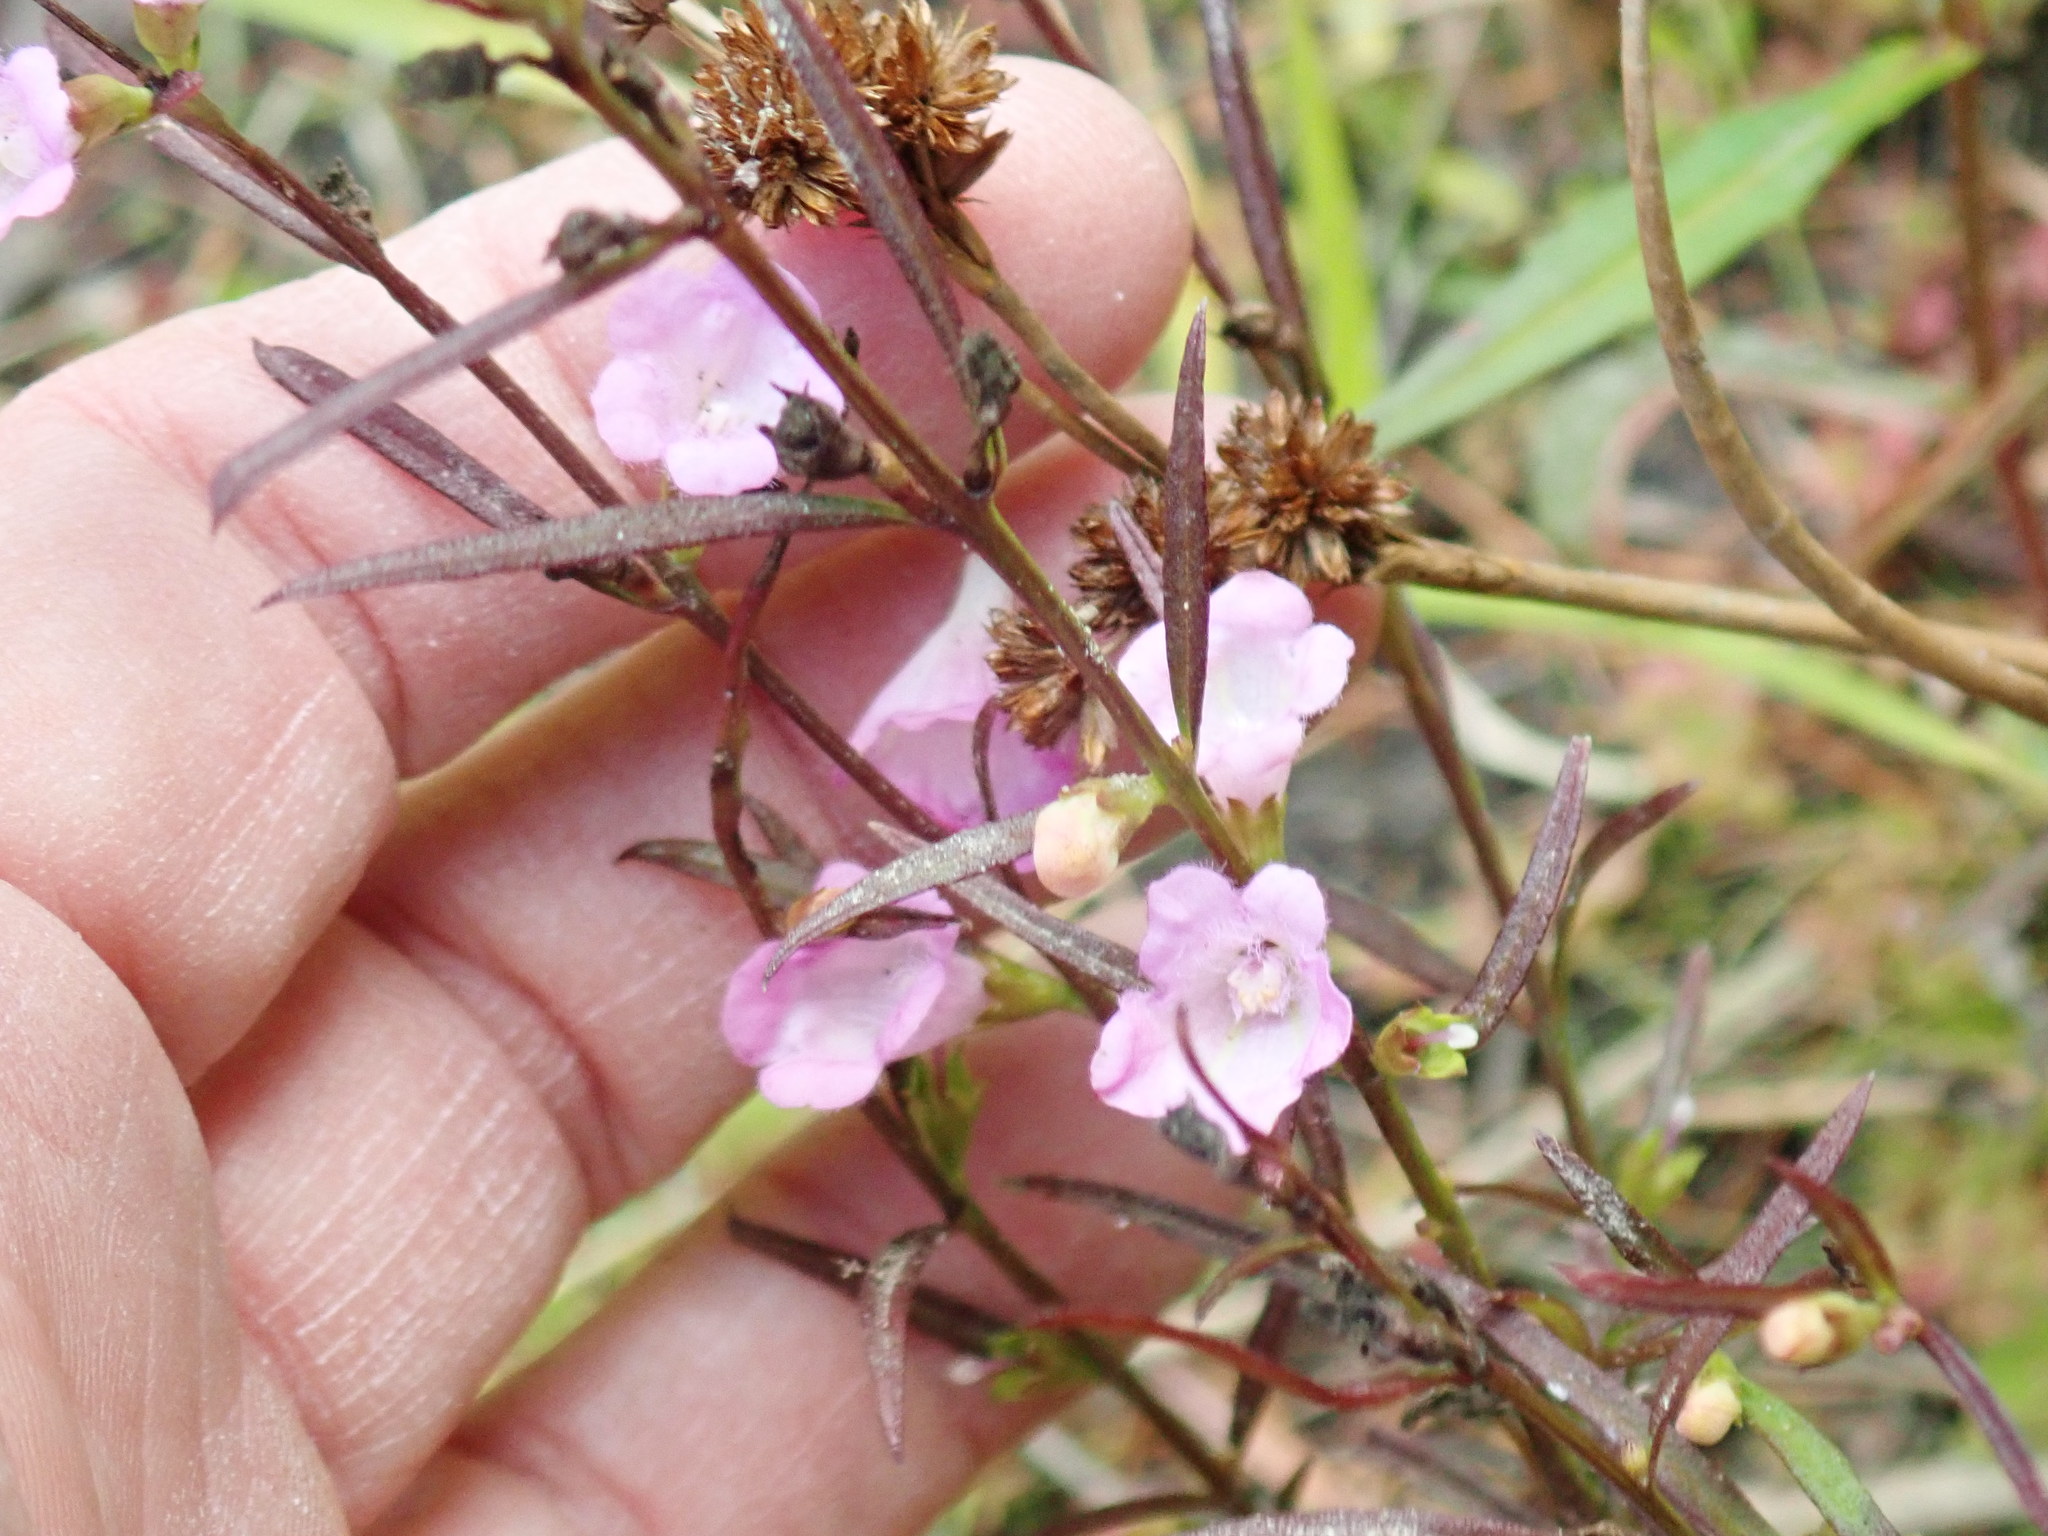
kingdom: Plantae
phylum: Tracheophyta
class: Magnoliopsida
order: Lamiales
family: Orobanchaceae
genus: Agalinis
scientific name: Agalinis tenuifolia
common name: Slender agalinis
